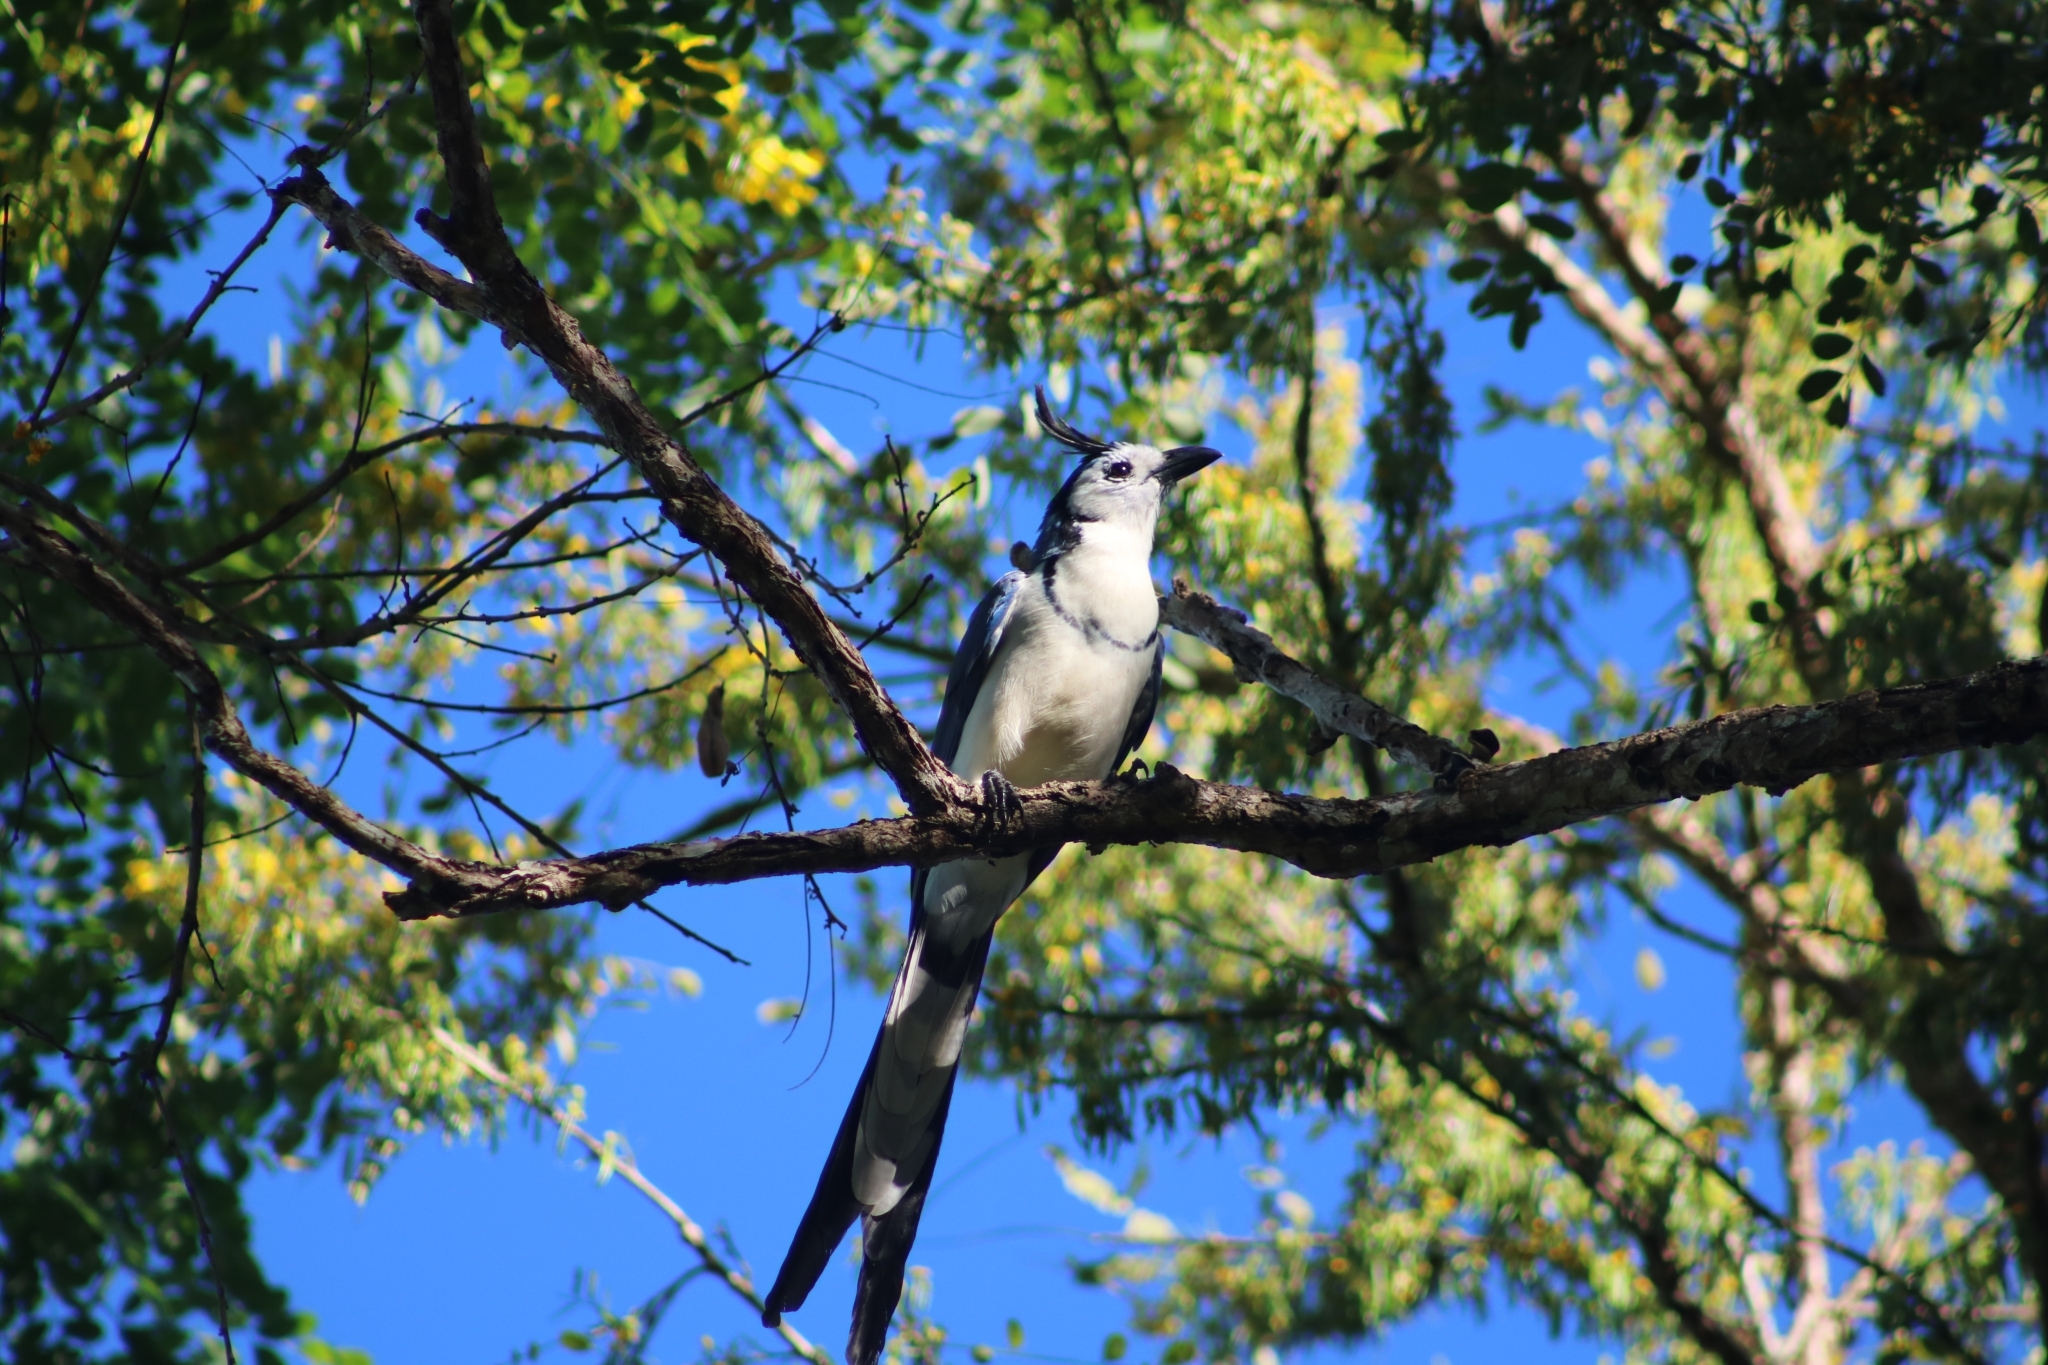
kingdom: Animalia
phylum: Chordata
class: Aves
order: Passeriformes
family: Corvidae
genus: Calocitta
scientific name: Calocitta formosa
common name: White-throated magpie-jay
